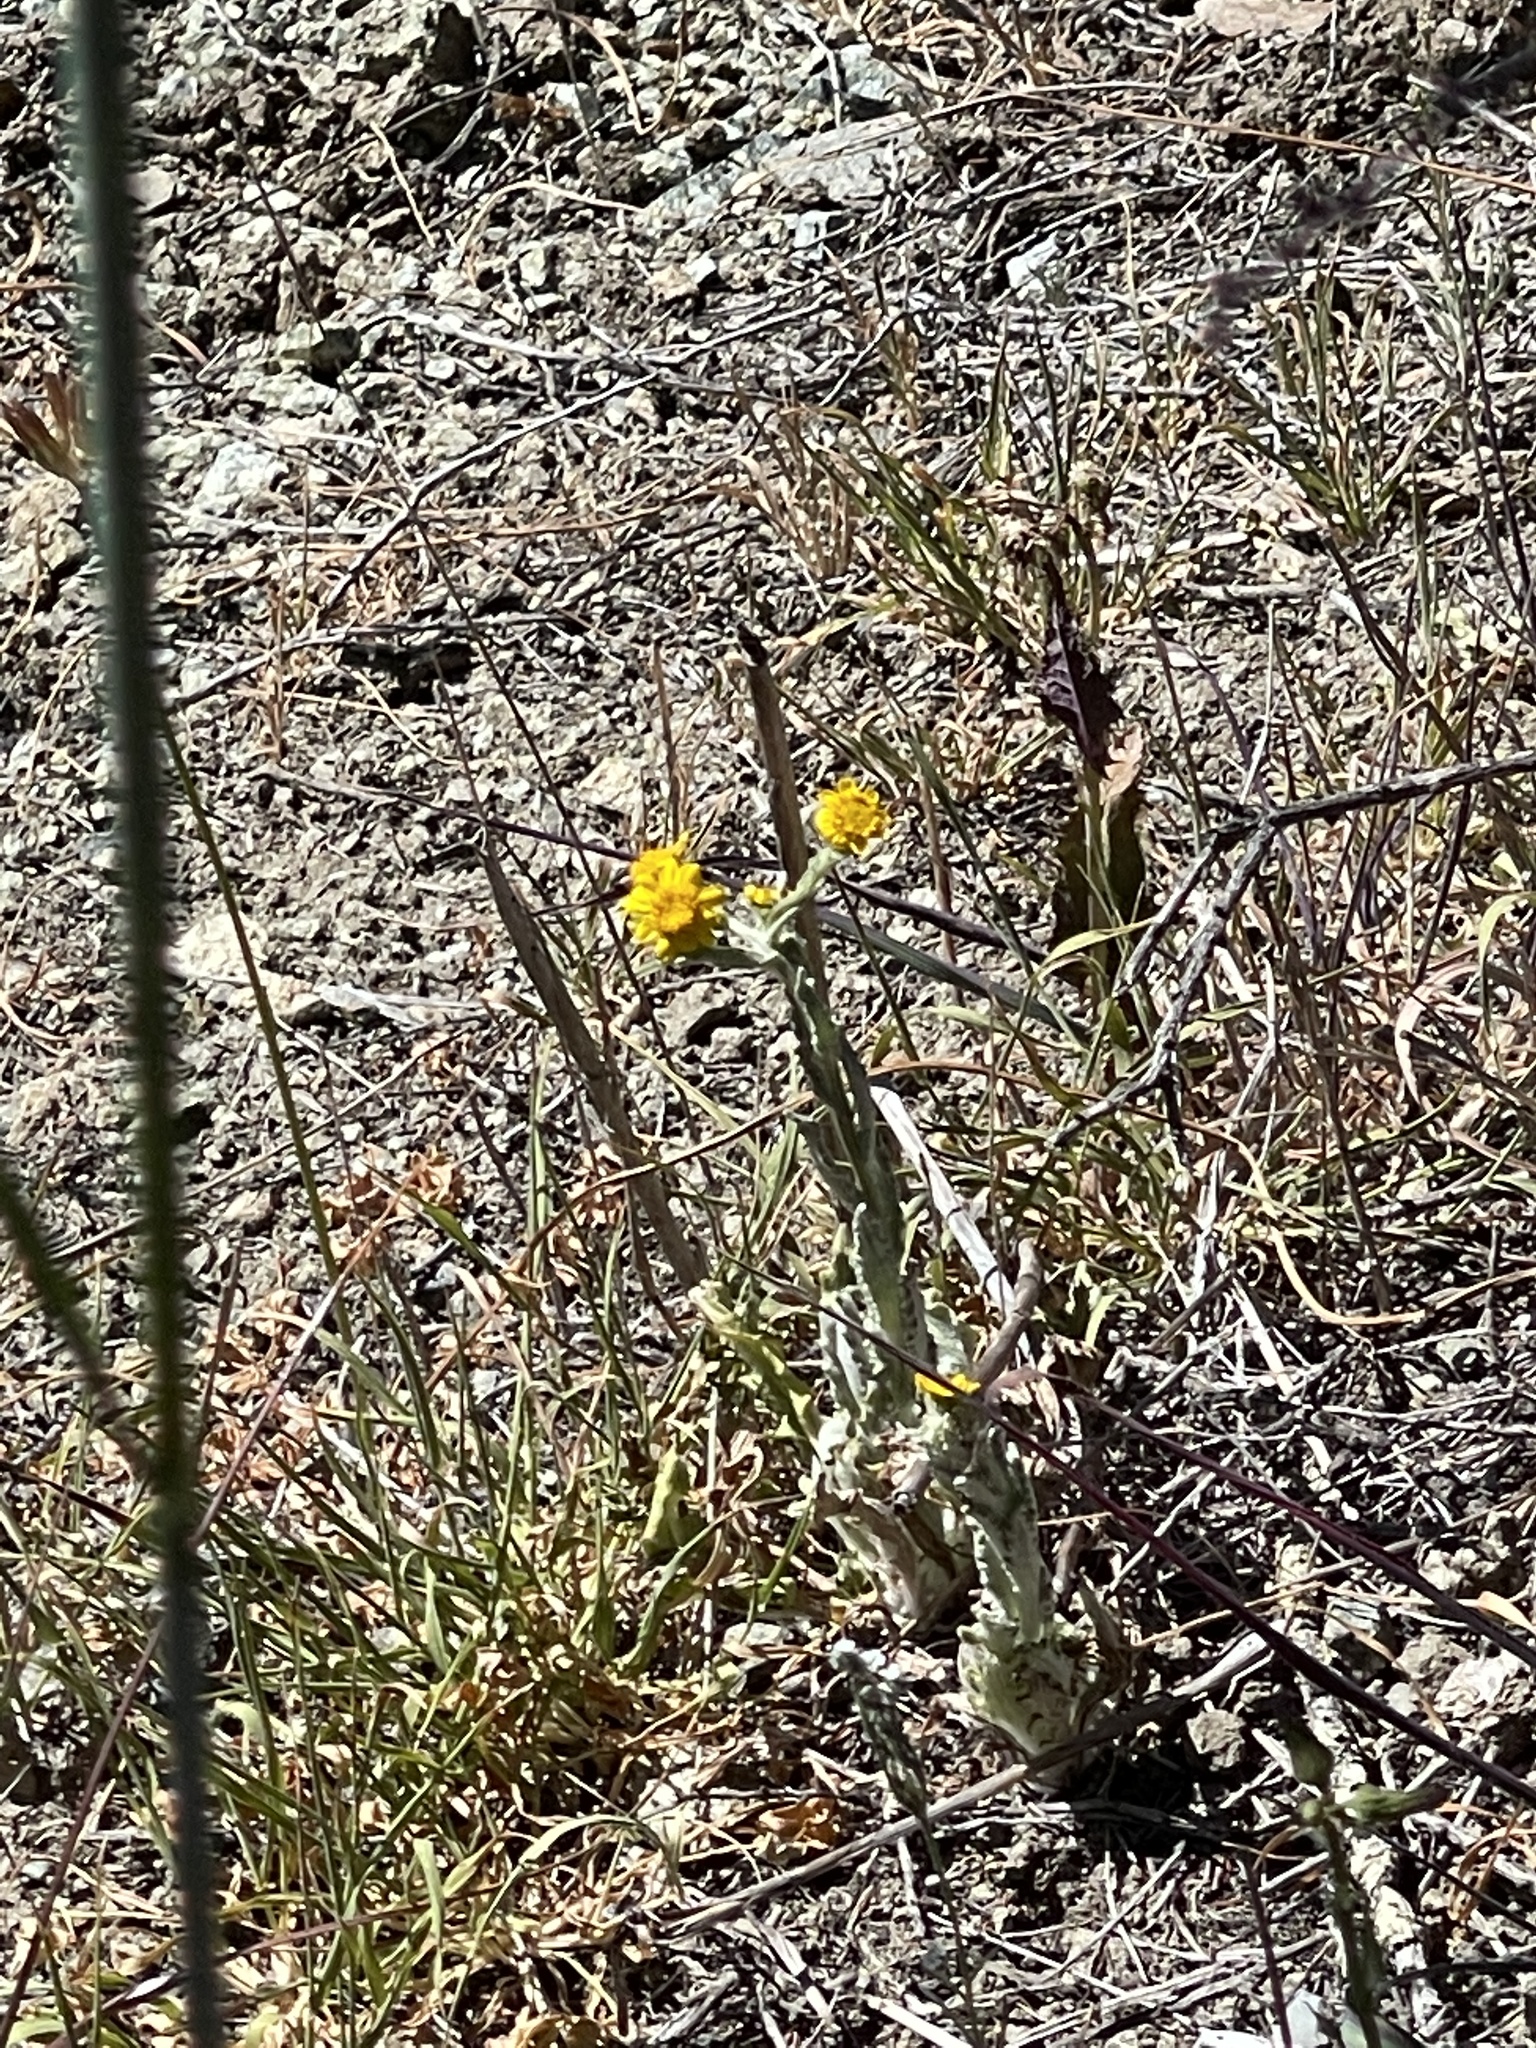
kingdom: Plantae
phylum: Tracheophyta
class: Magnoliopsida
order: Asterales
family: Asteraceae
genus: Monolopia
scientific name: Monolopia gracilens
